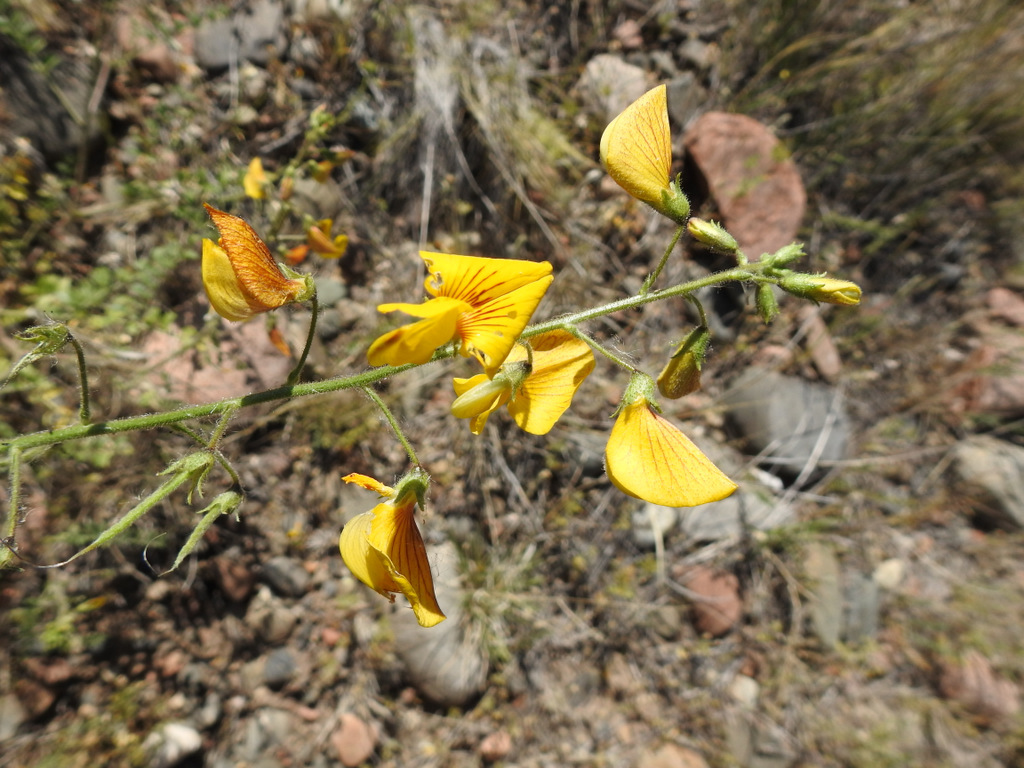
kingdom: Plantae
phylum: Tracheophyta
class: Magnoliopsida
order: Fabales
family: Fabaceae
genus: Adesmia
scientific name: Adesmia grandiflora
